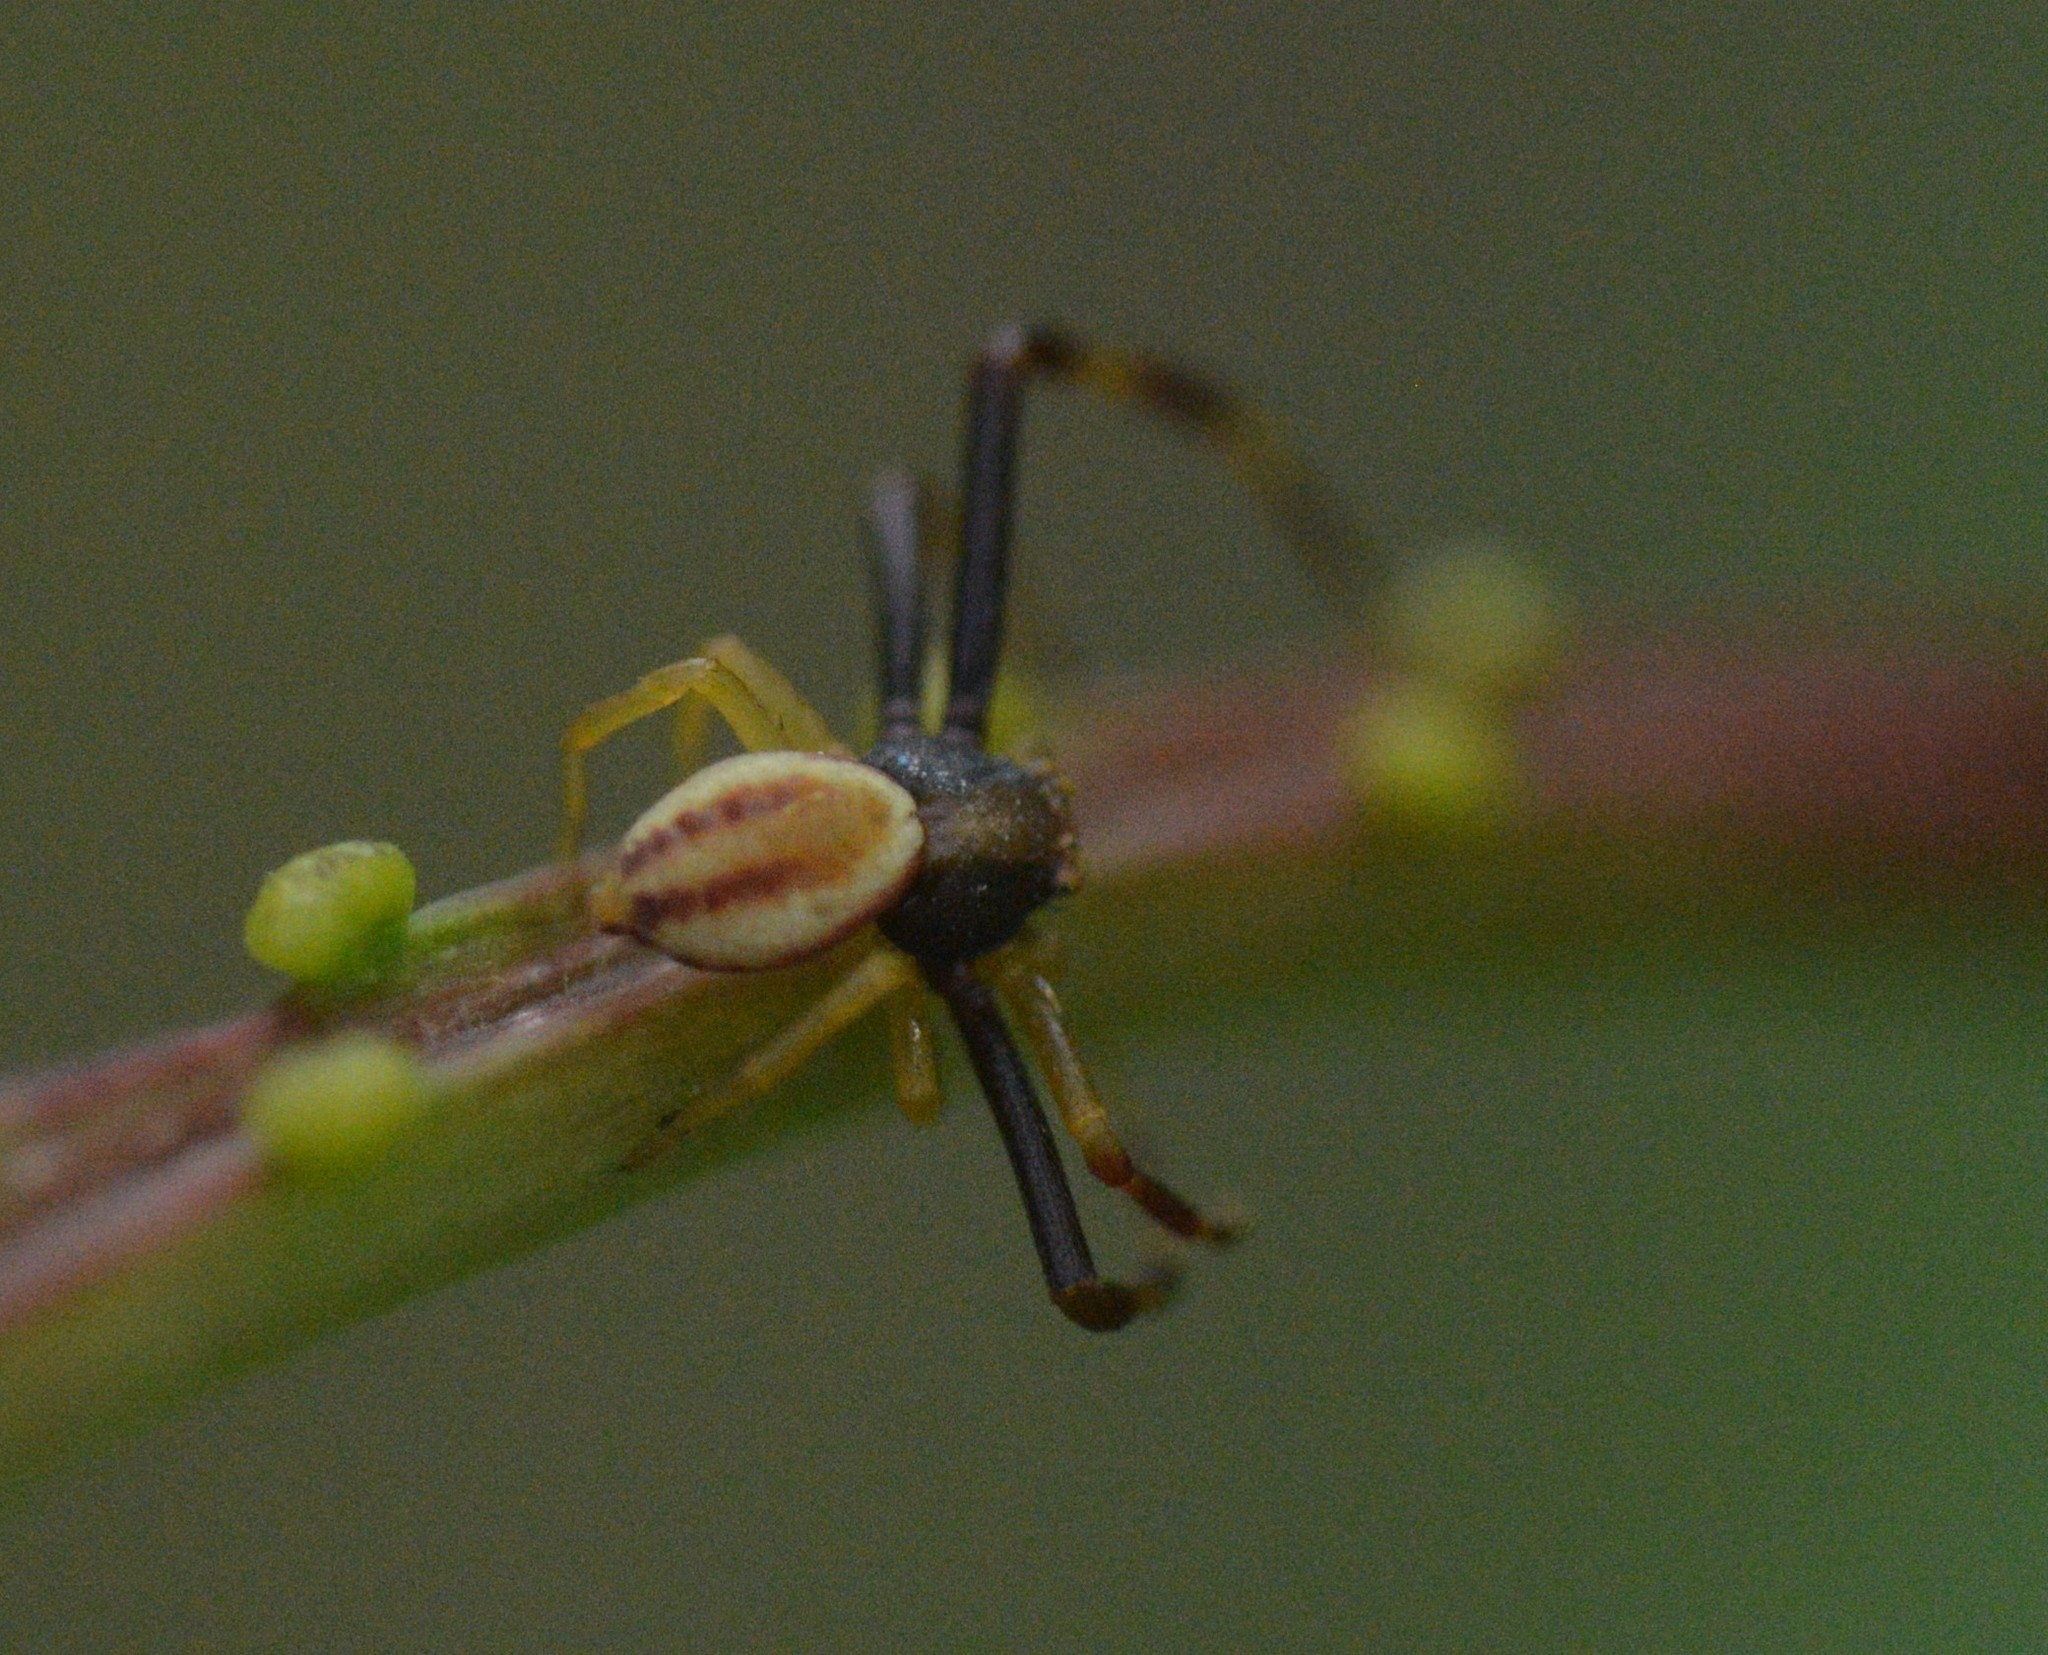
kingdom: Animalia
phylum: Arthropoda
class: Arachnida
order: Araneae
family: Thomisidae
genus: Misumena
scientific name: Misumena vatia
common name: Goldenrod crab spider
